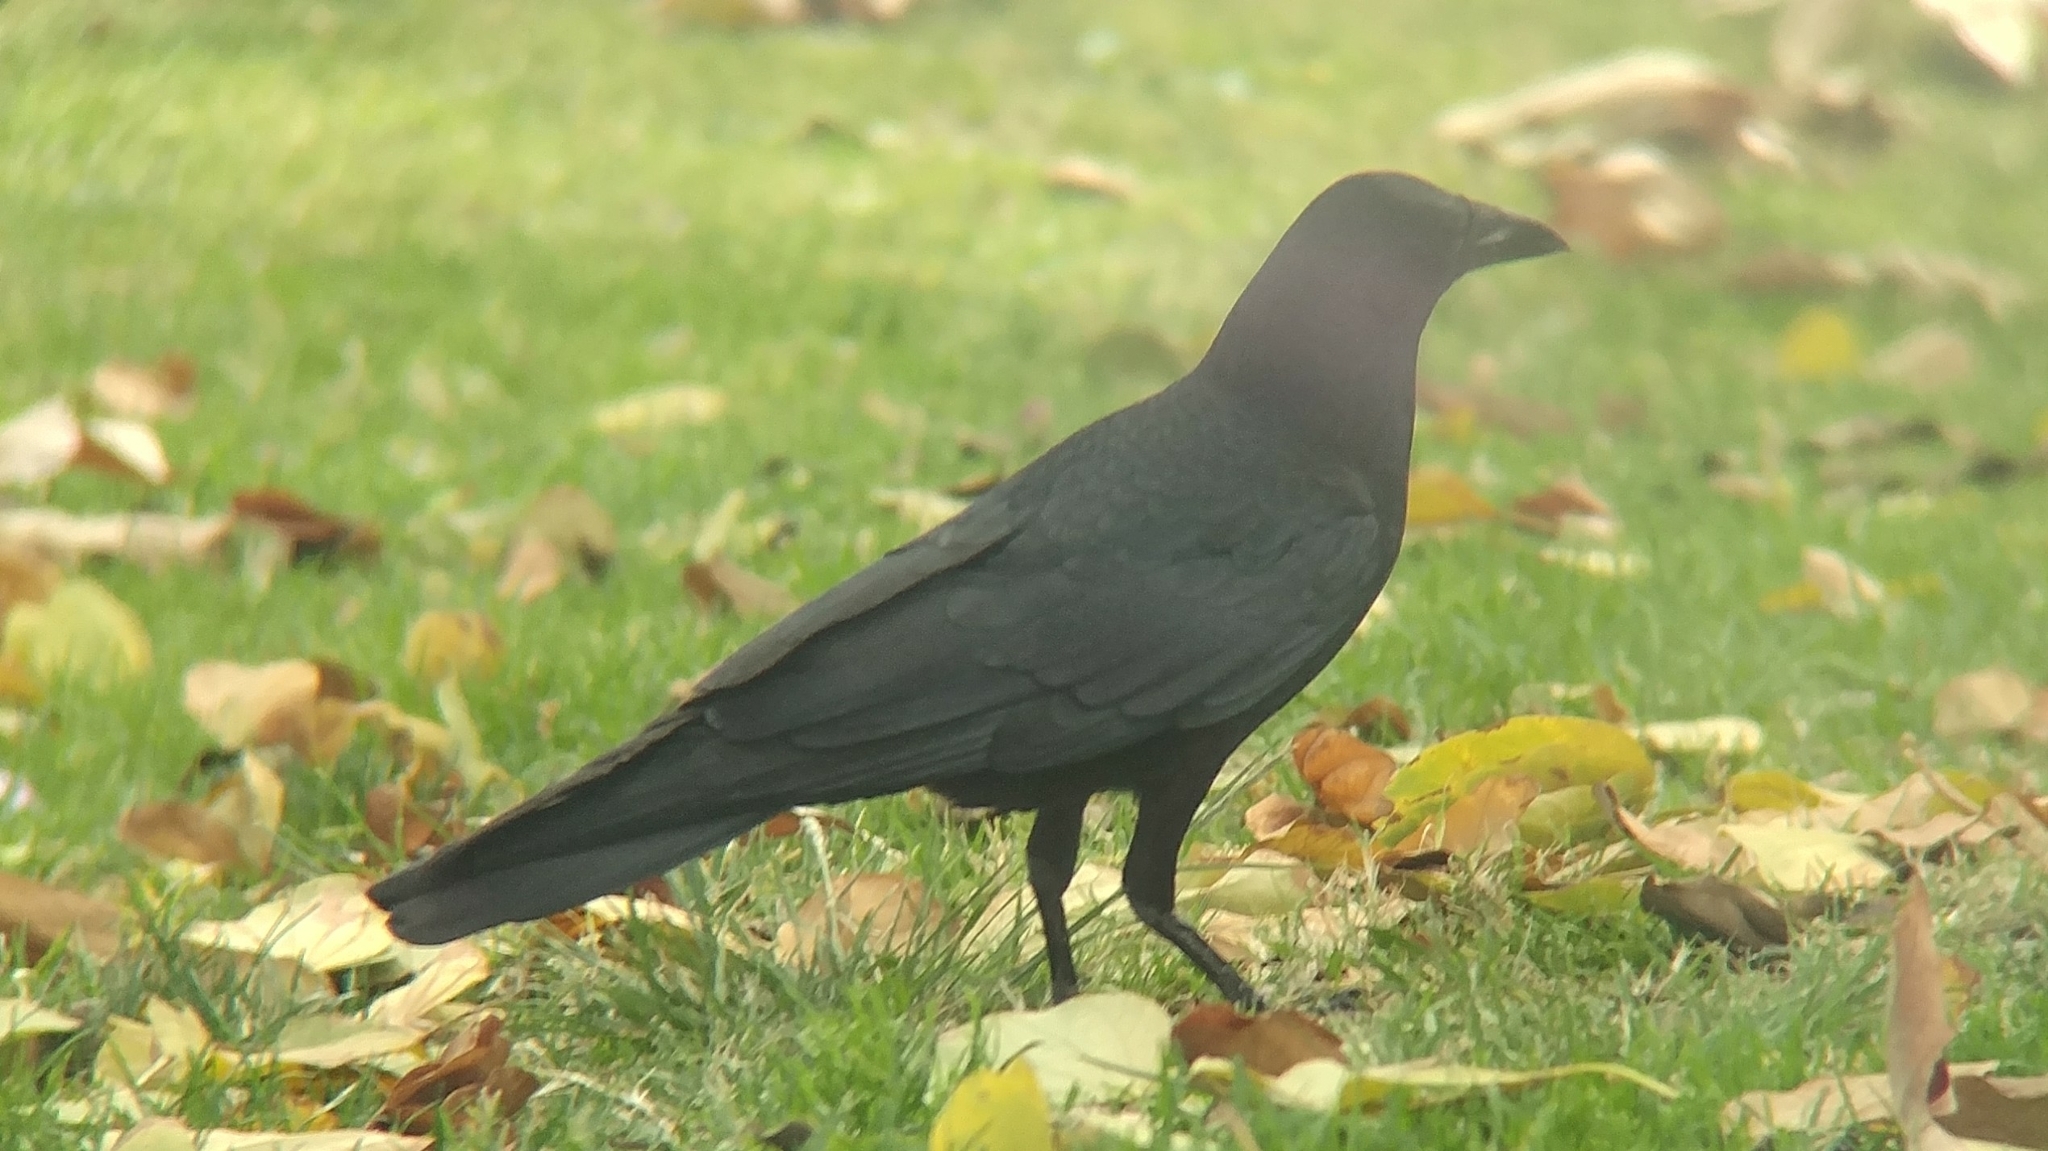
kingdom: Animalia
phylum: Chordata
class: Aves
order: Passeriformes
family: Corvidae
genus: Corvus
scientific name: Corvus brachyrhynchos
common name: American crow
